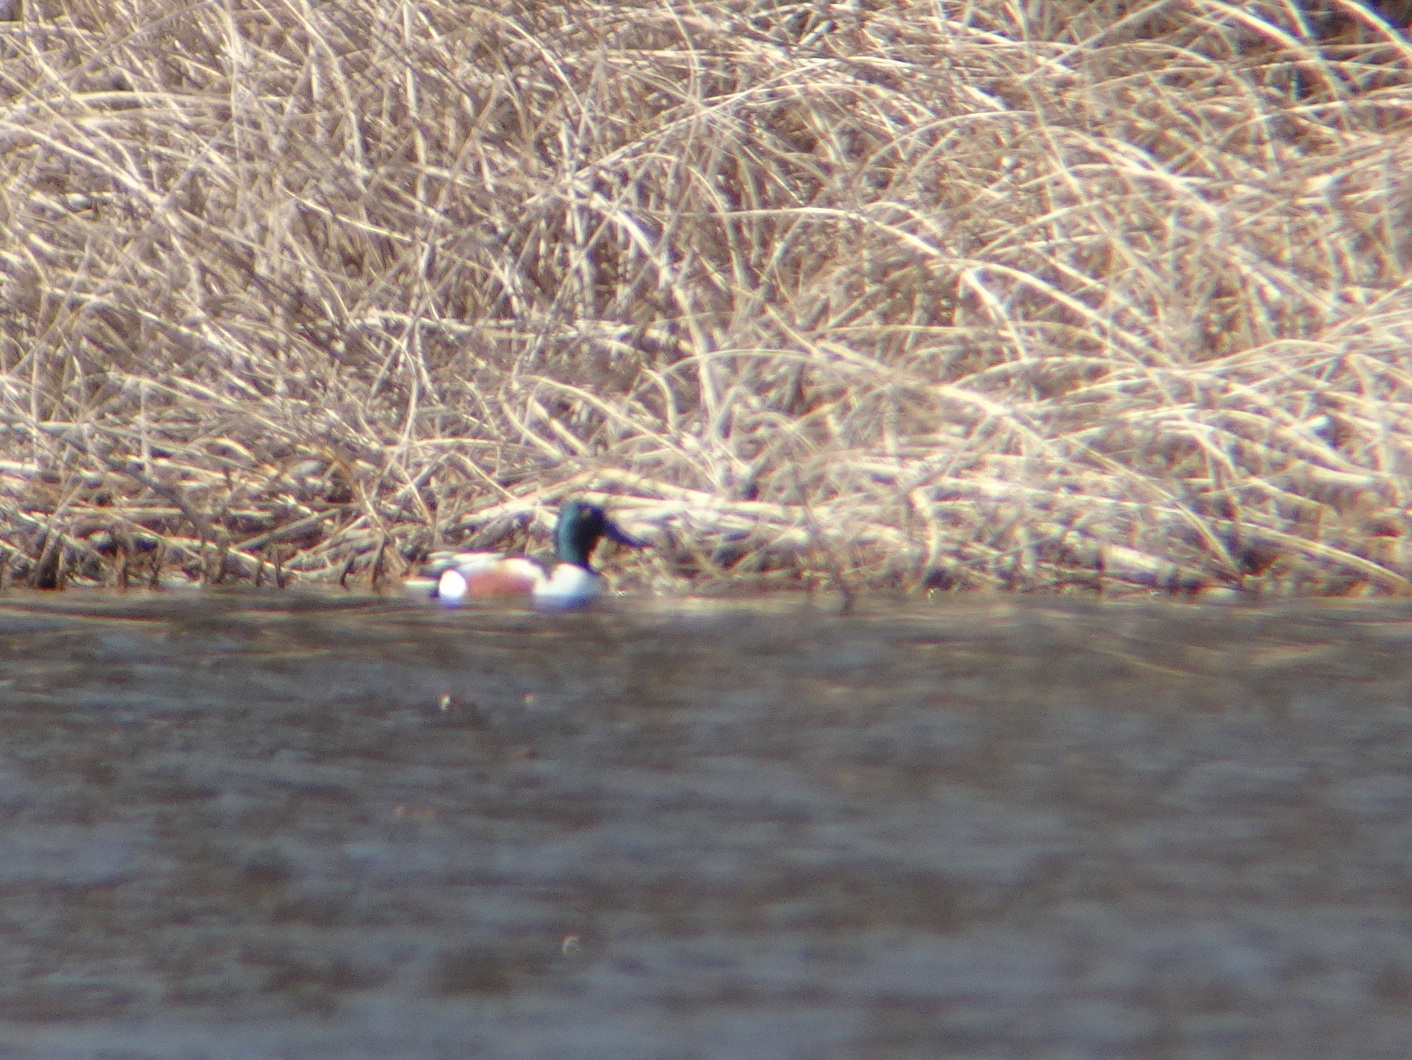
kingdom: Animalia
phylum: Chordata
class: Aves
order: Anseriformes
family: Anatidae
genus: Spatula
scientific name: Spatula clypeata
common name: Northern shoveler
